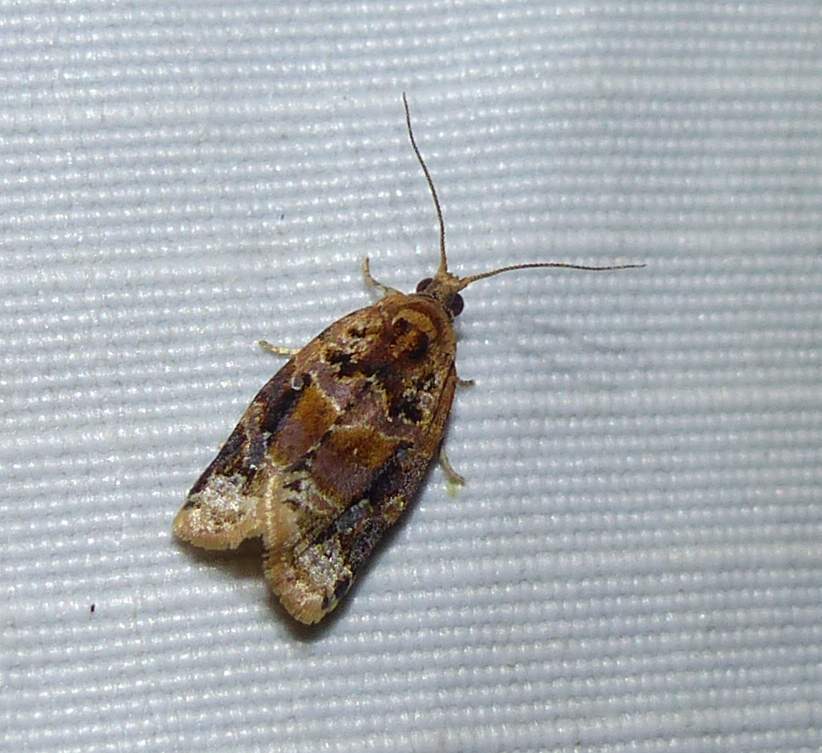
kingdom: Animalia
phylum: Arthropoda
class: Insecta
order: Lepidoptera
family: Tortricidae
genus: Argyrotaenia
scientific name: Argyrotaenia velutinana
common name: Red-banded leafroller moth
